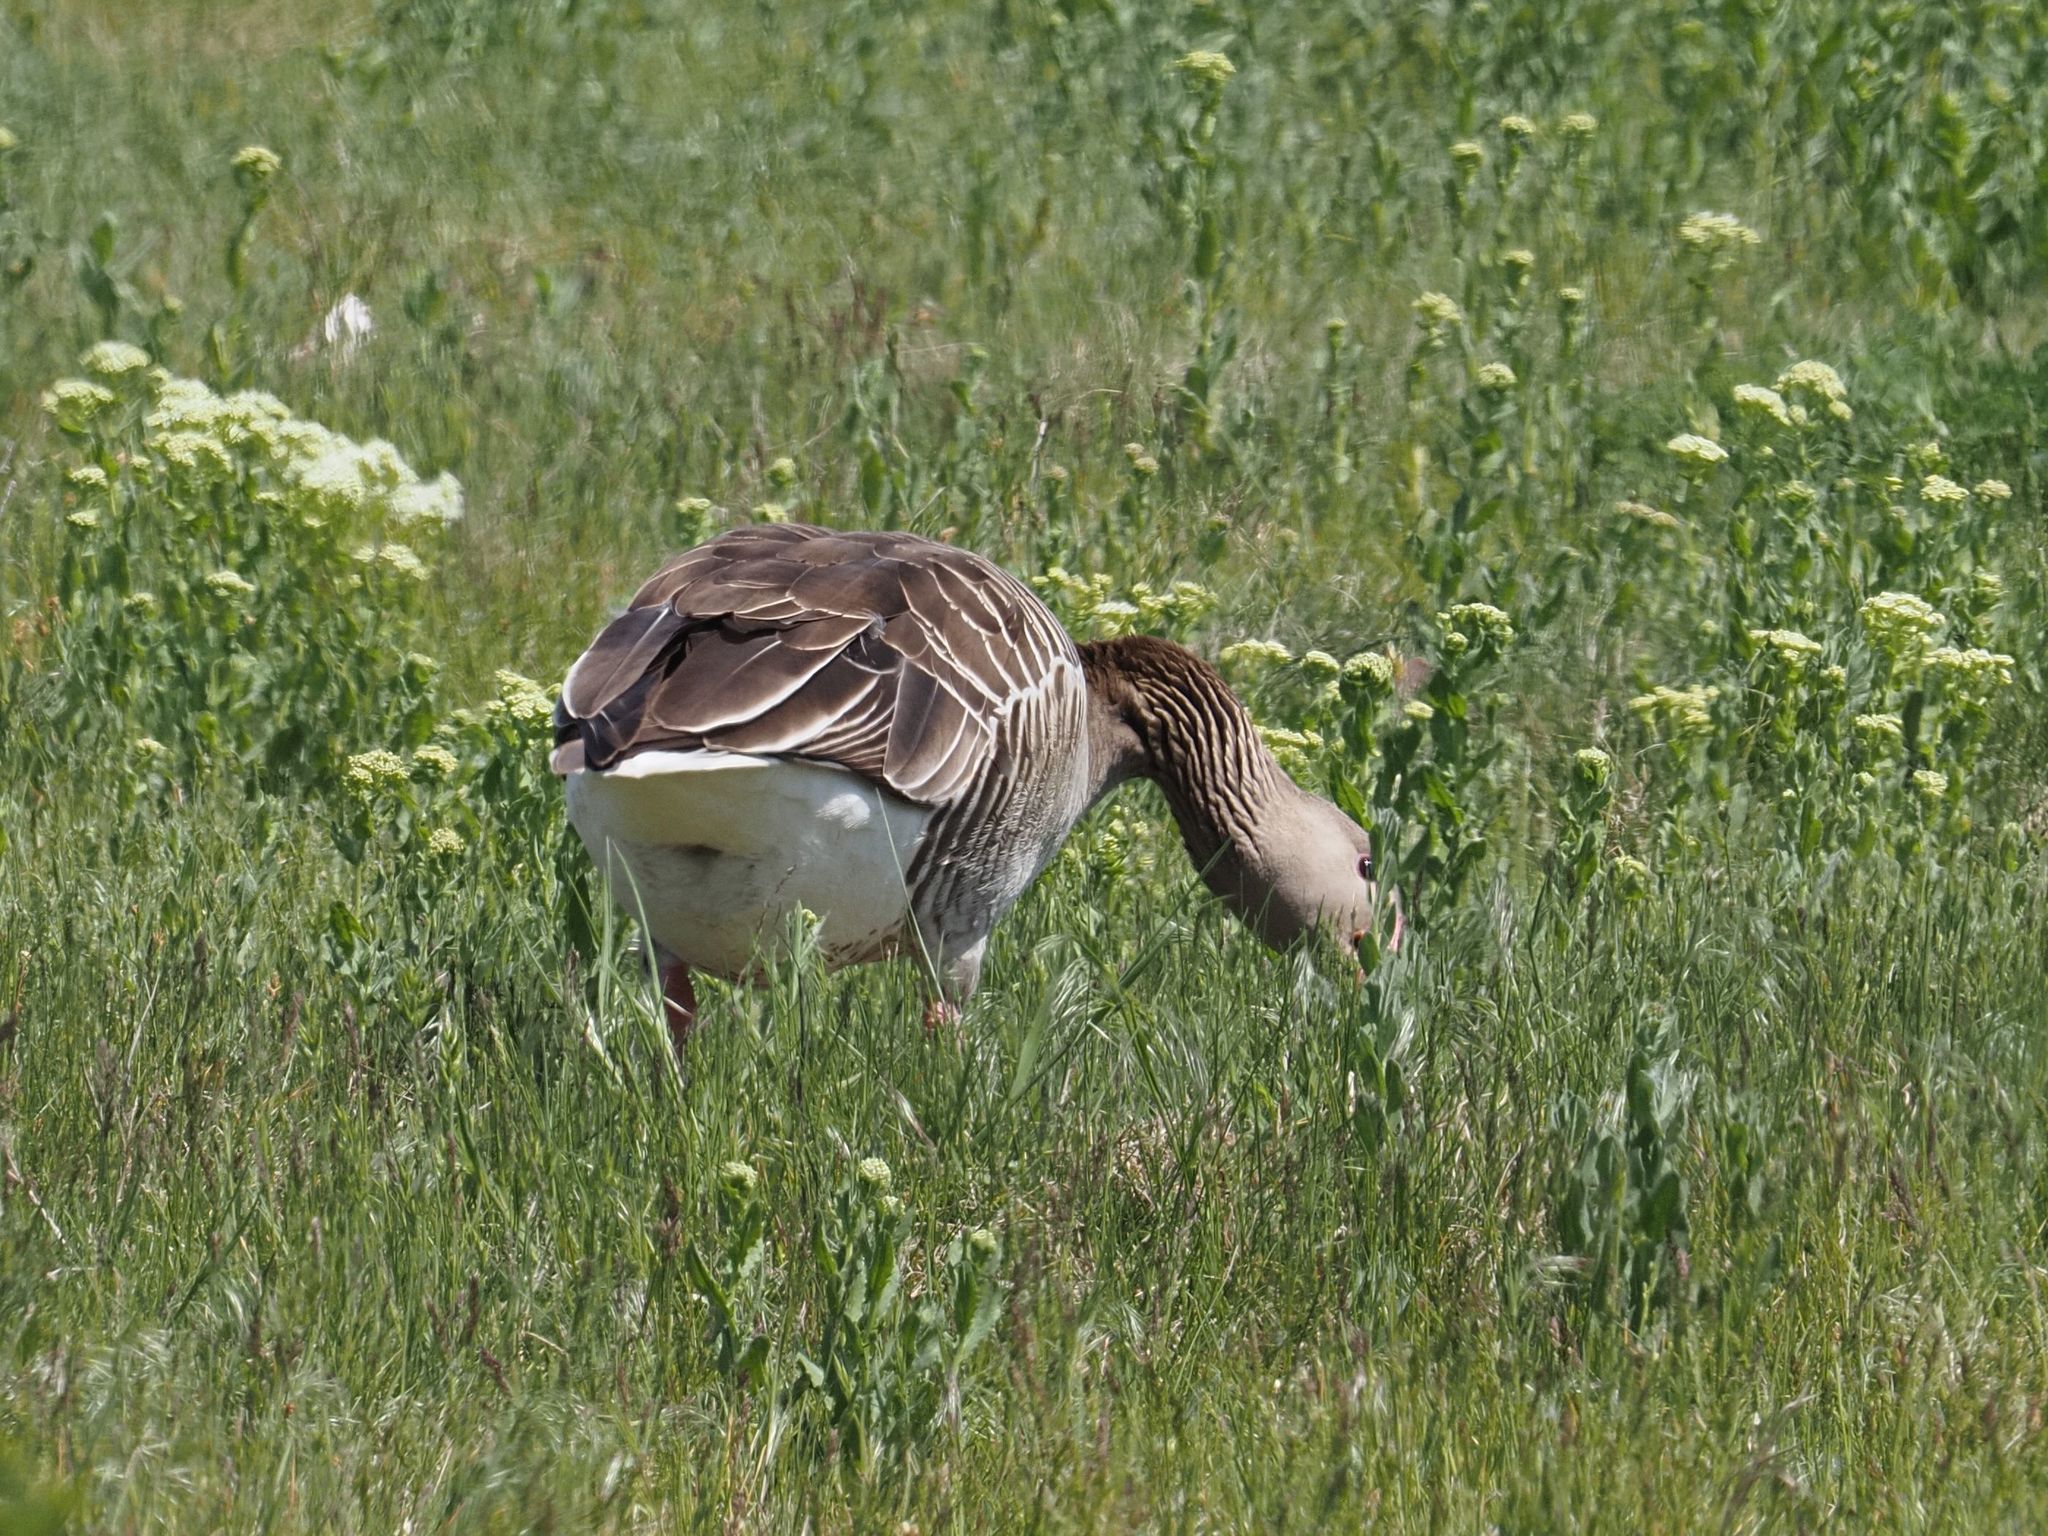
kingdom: Animalia
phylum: Chordata
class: Aves
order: Anseriformes
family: Anatidae
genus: Anser
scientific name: Anser anser
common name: Greylag goose
